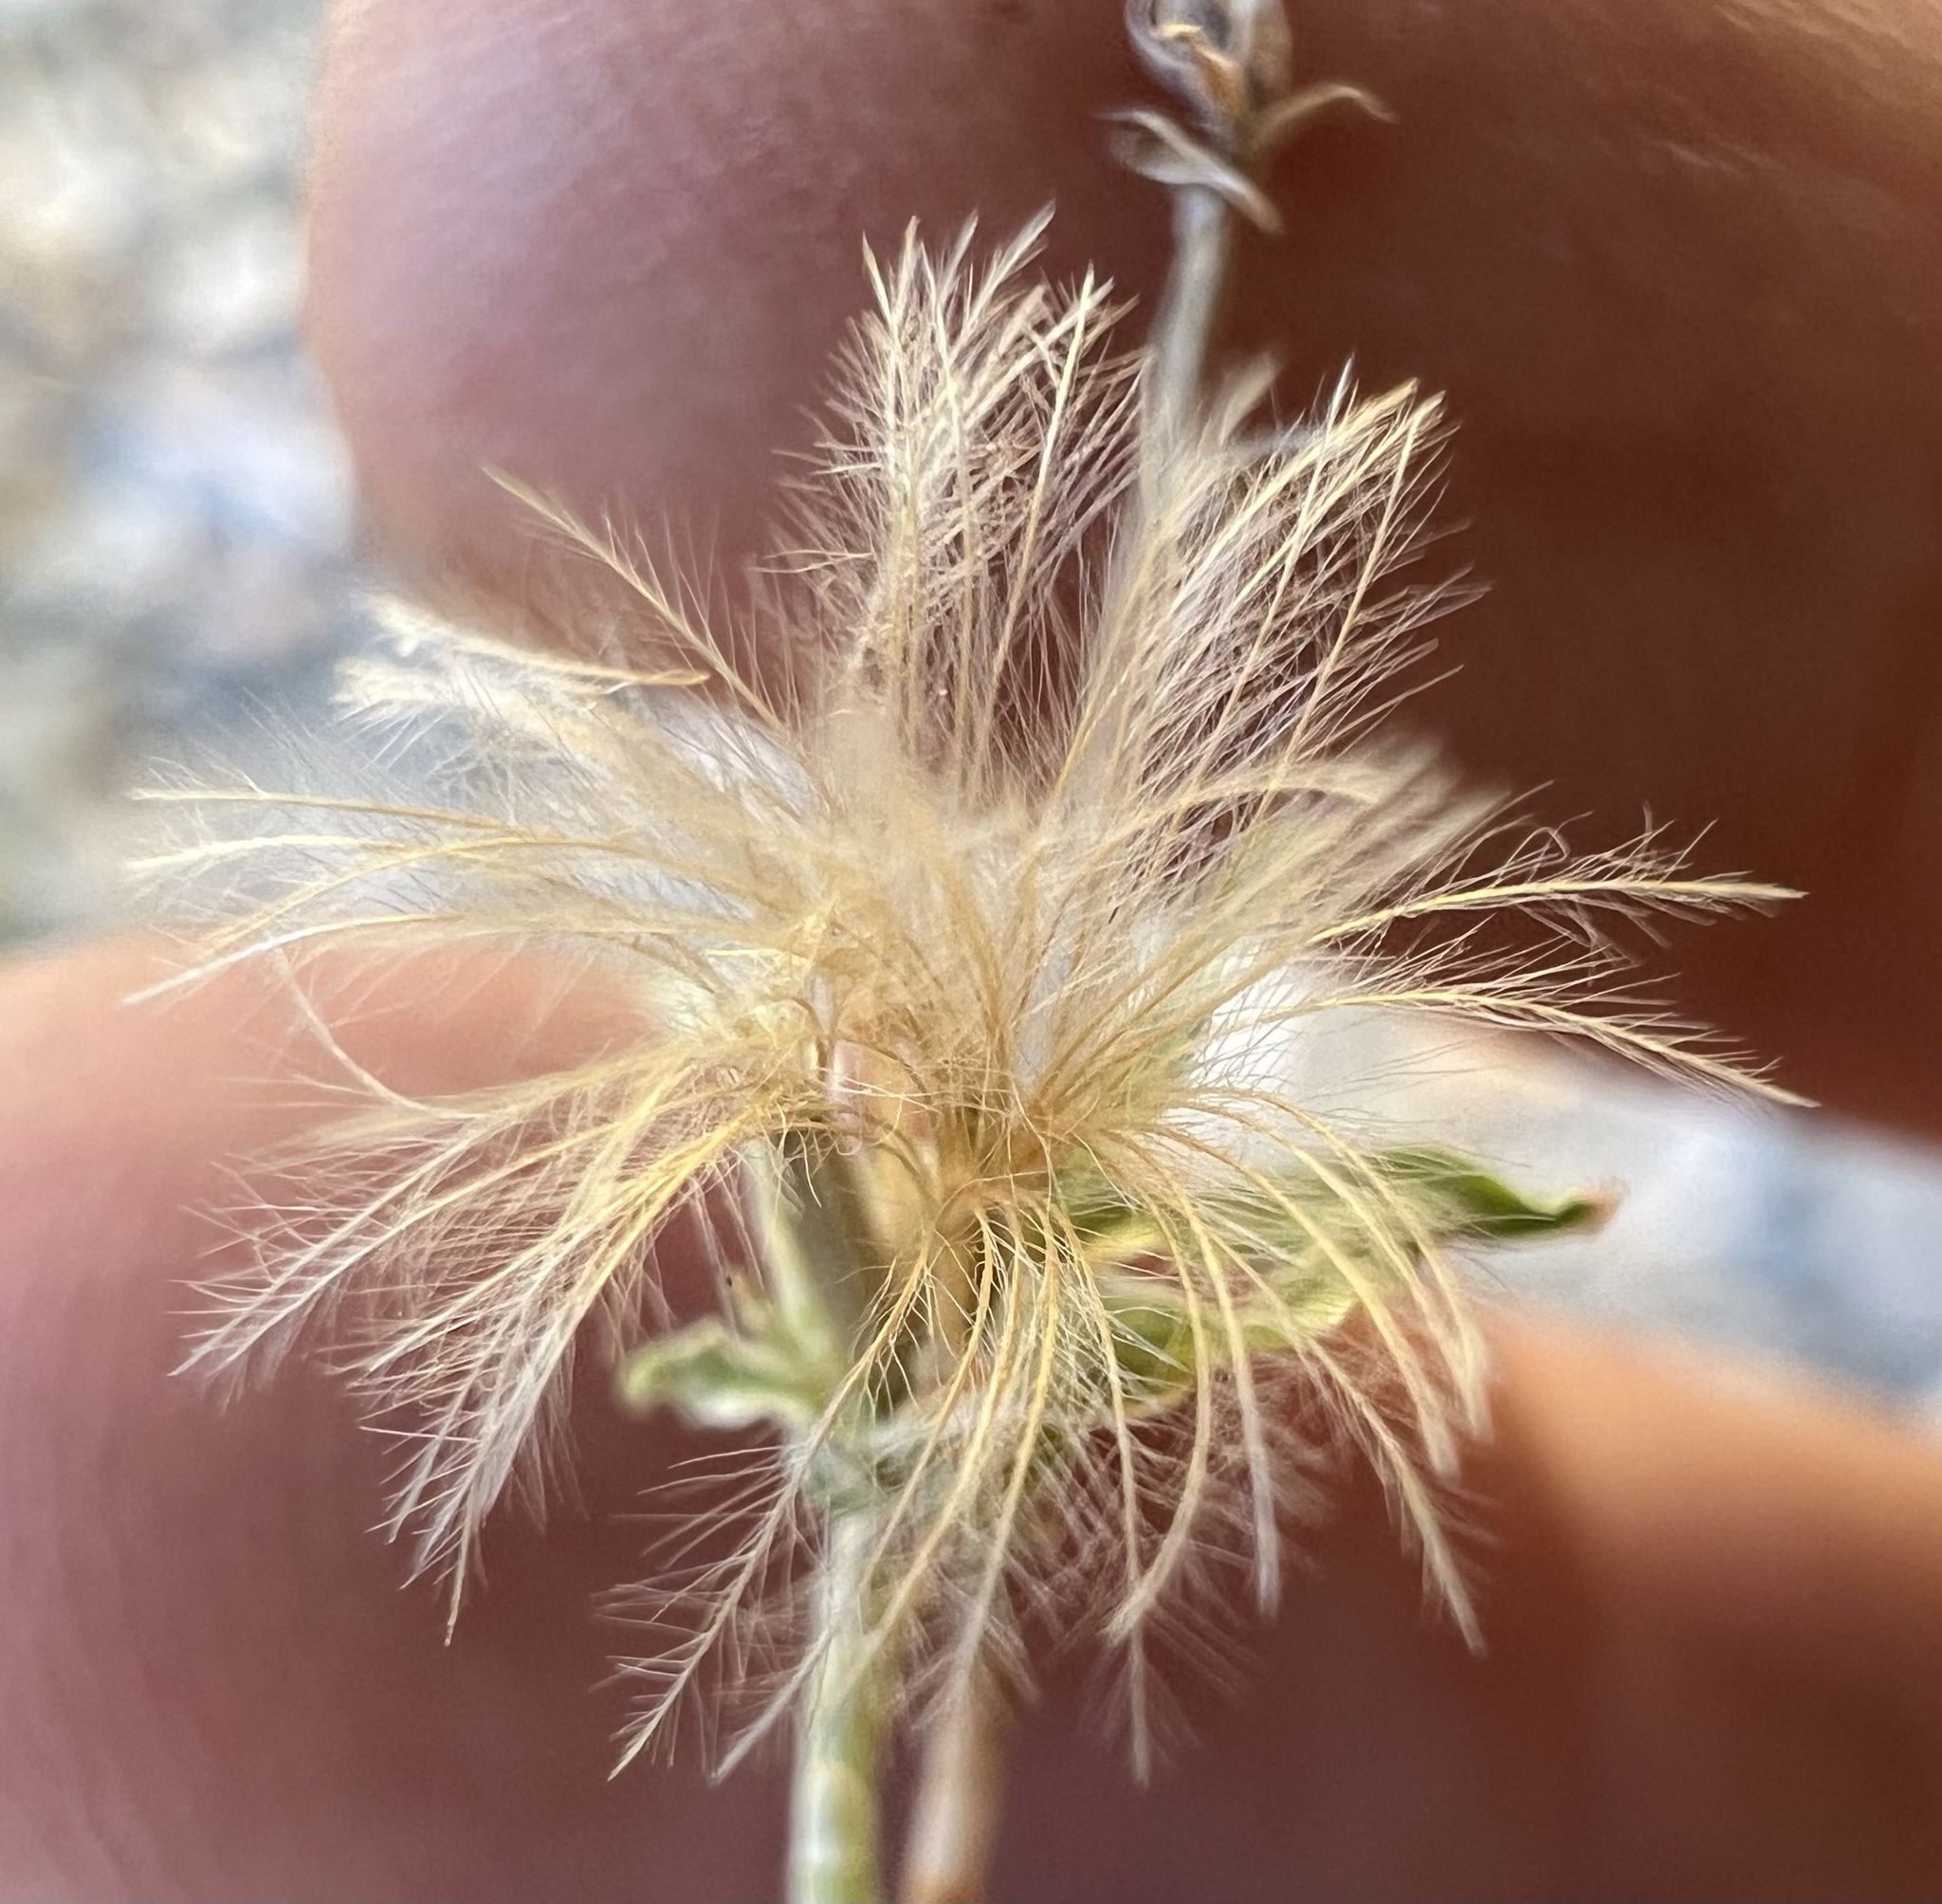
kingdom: Plantae
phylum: Tracheophyta
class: Magnoliopsida
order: Asterales
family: Asteraceae
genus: Stephanomeria
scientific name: Stephanomeria pauciflora
